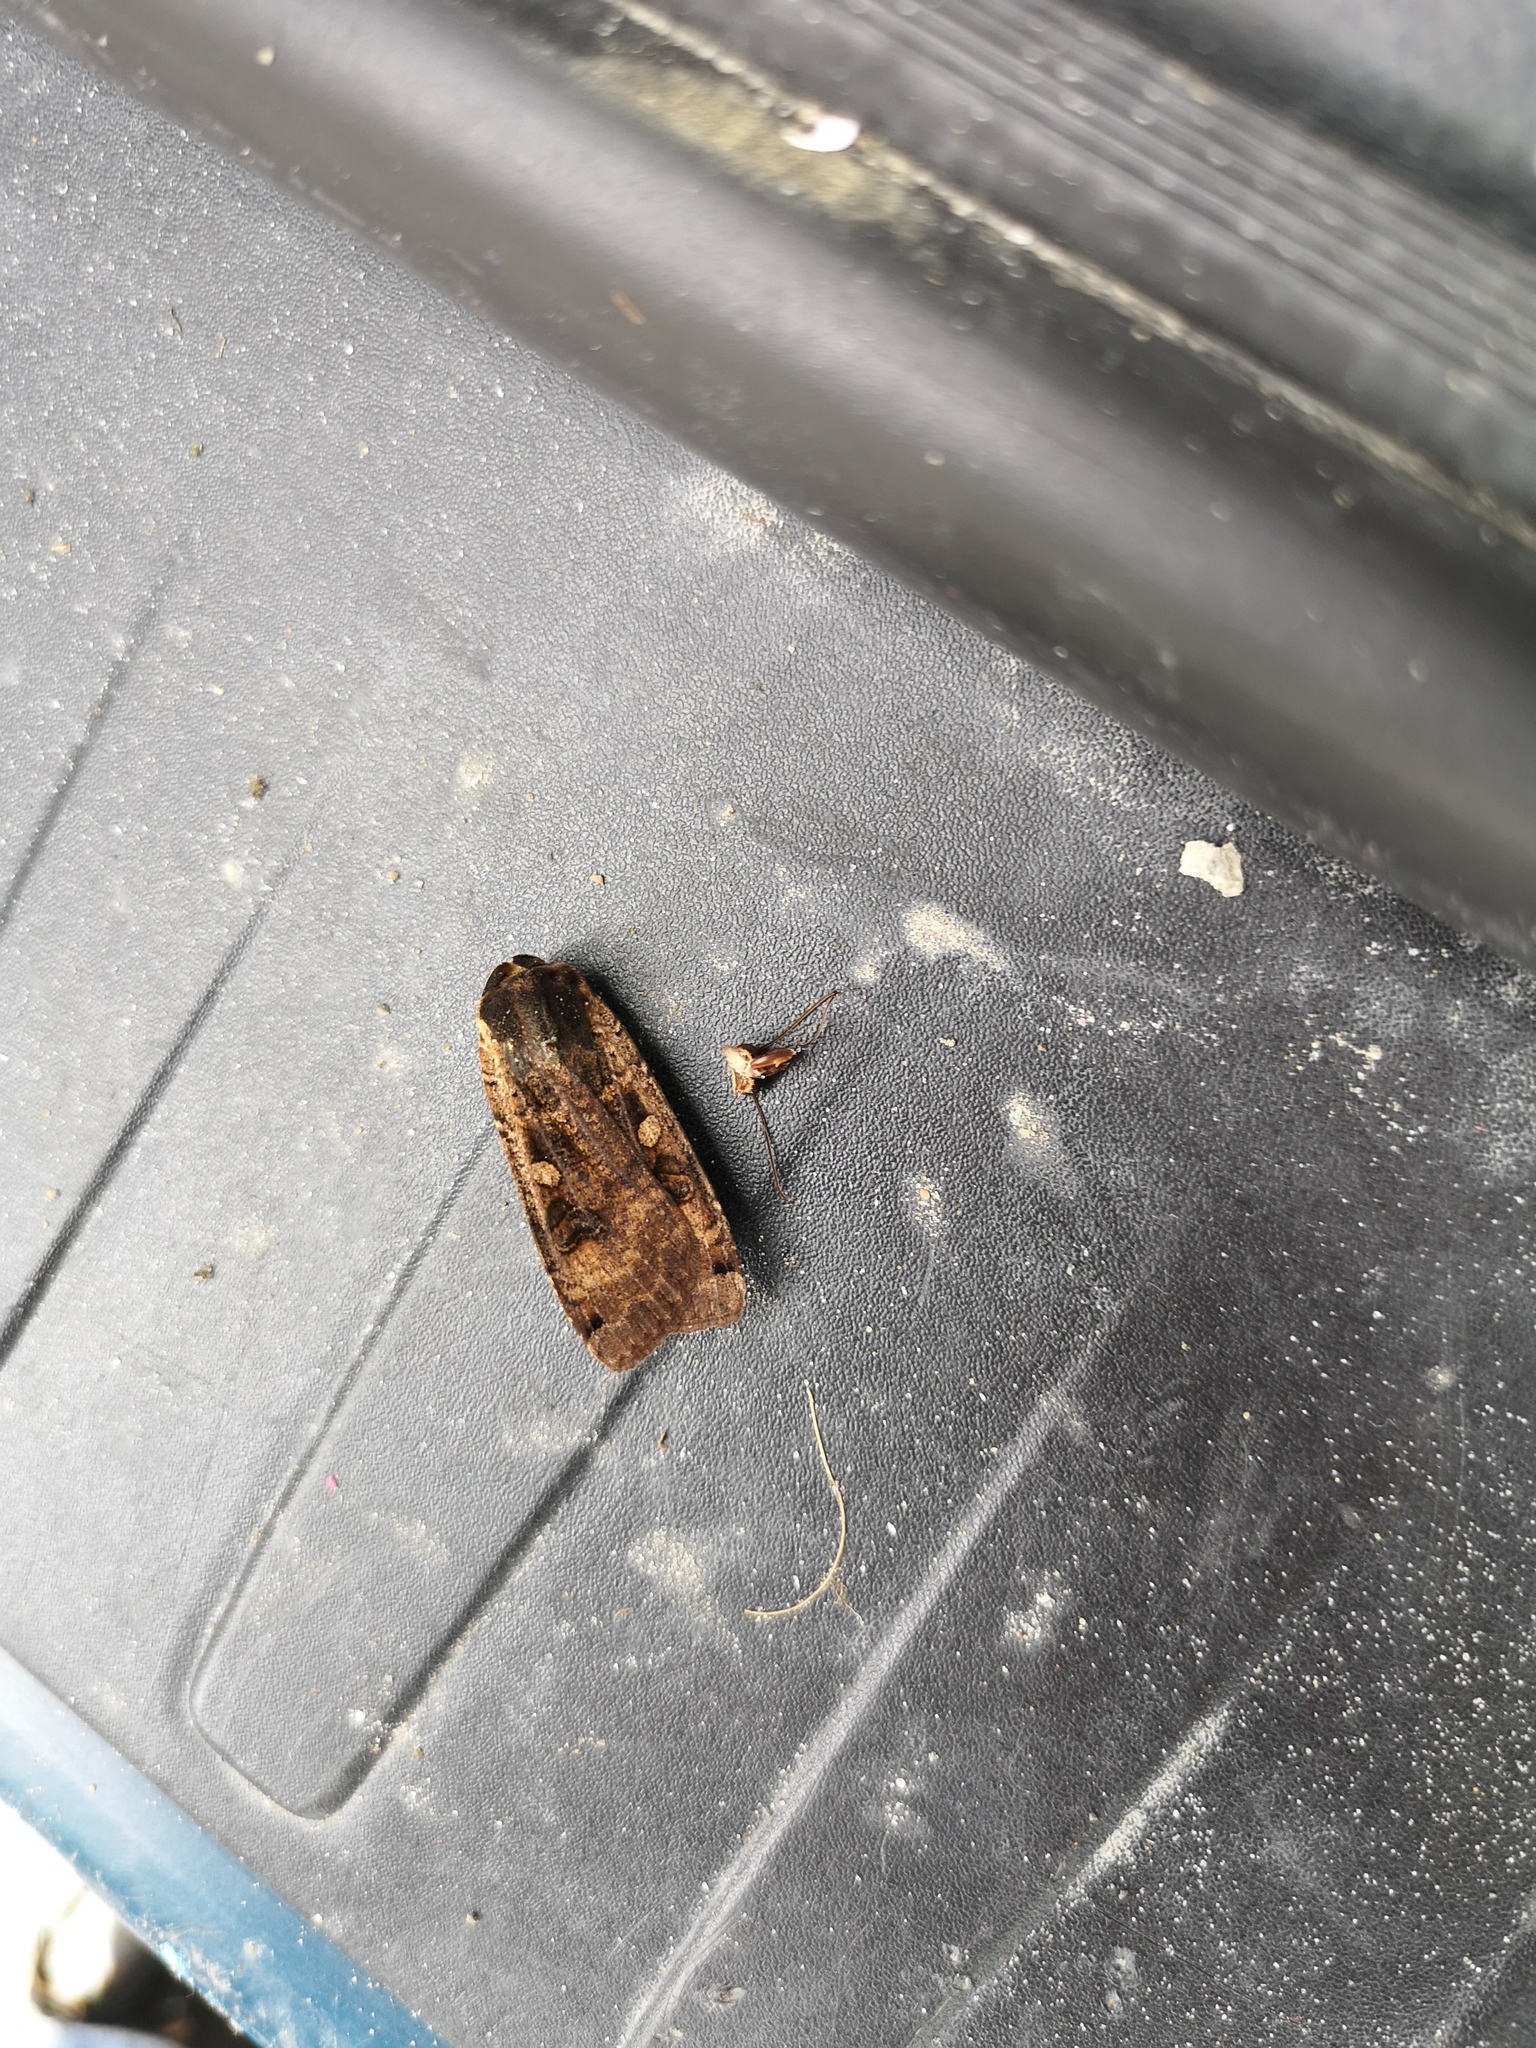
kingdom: Animalia
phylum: Arthropoda
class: Insecta
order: Lepidoptera
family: Noctuidae
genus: Noctua
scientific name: Noctua pronuba
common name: Large yellow underwing
